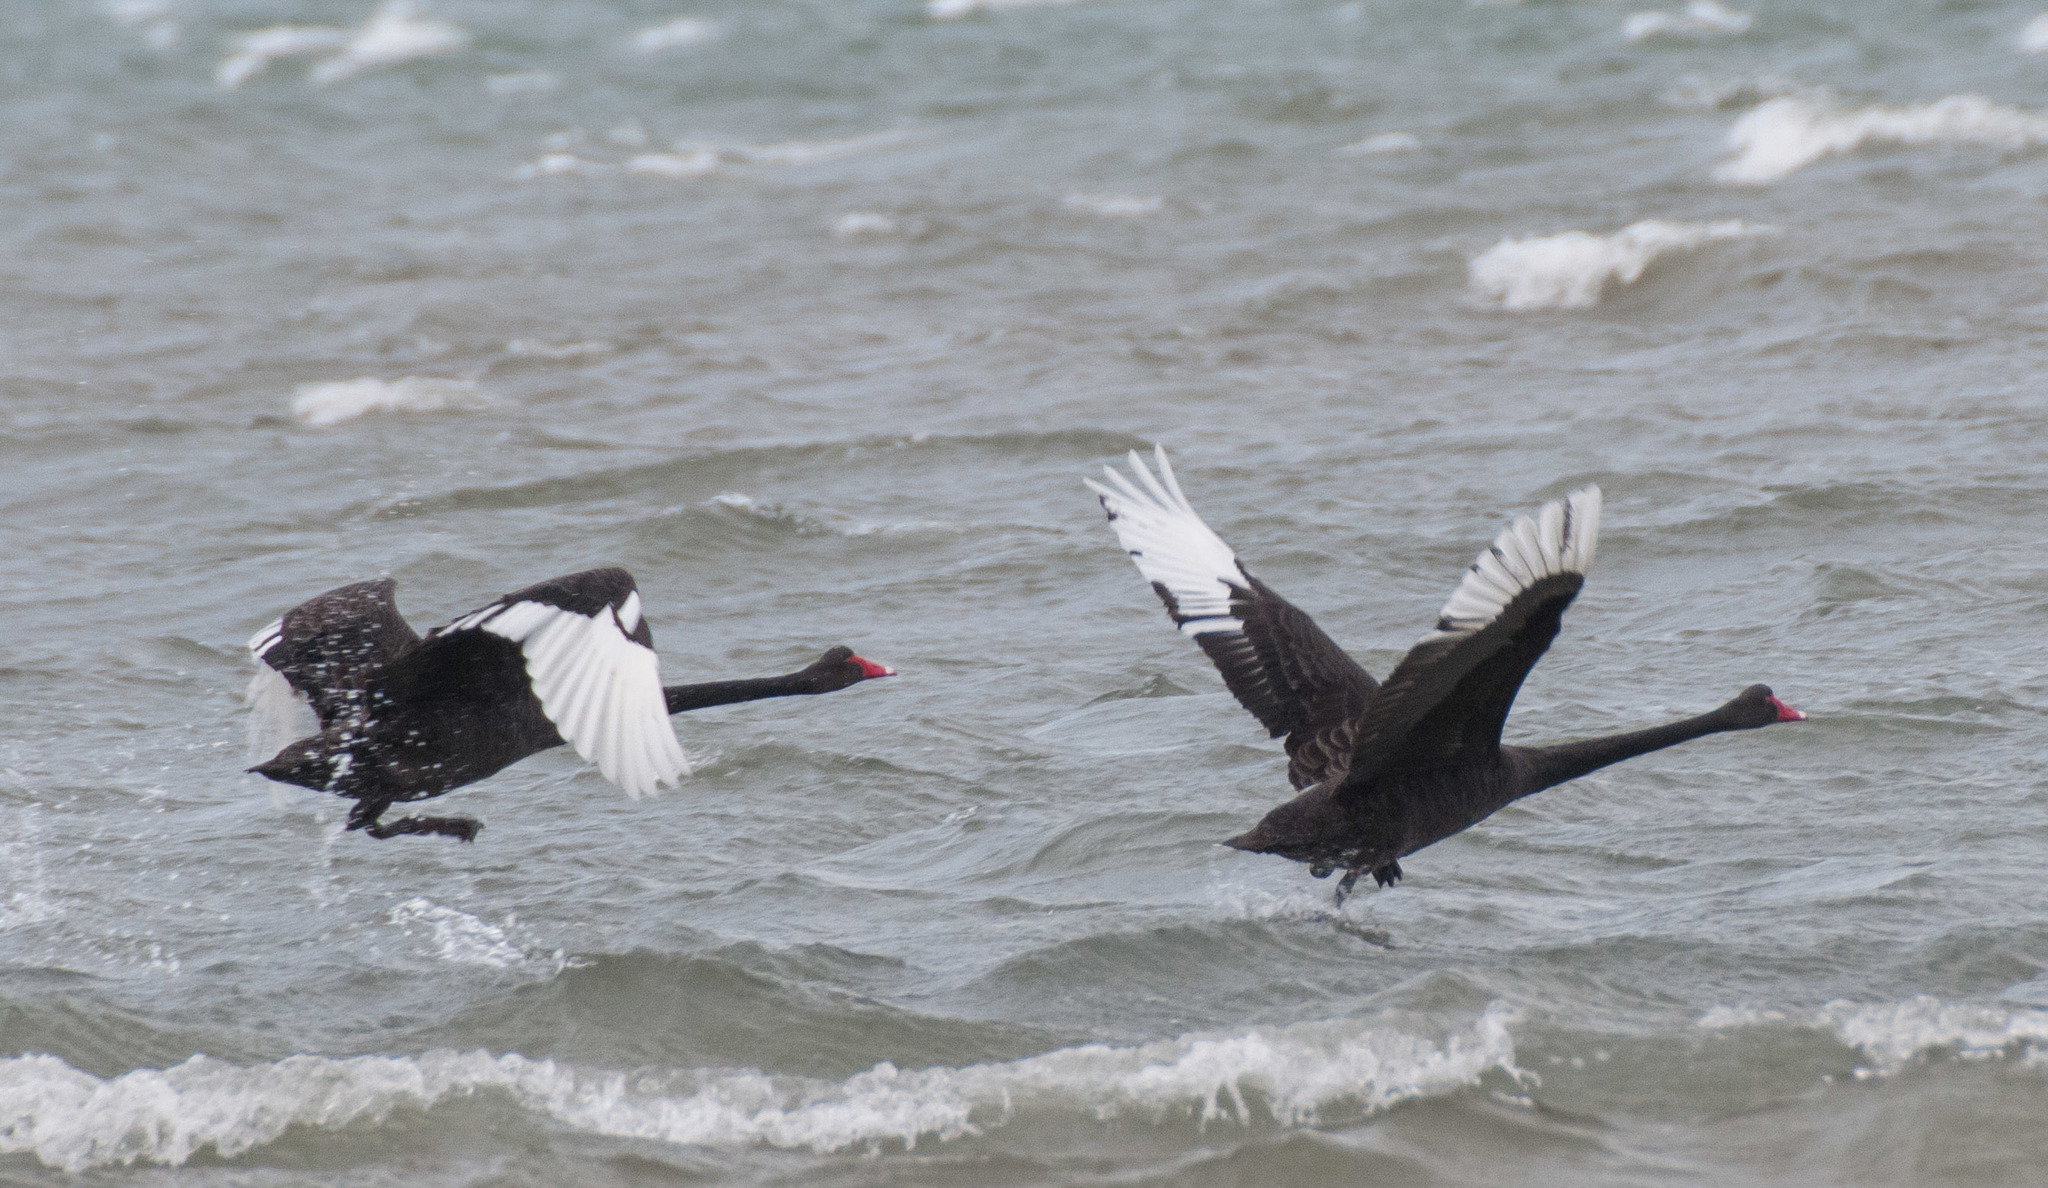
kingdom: Animalia
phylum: Chordata
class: Aves
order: Anseriformes
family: Anatidae
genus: Cygnus
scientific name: Cygnus atratus
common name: Black swan
